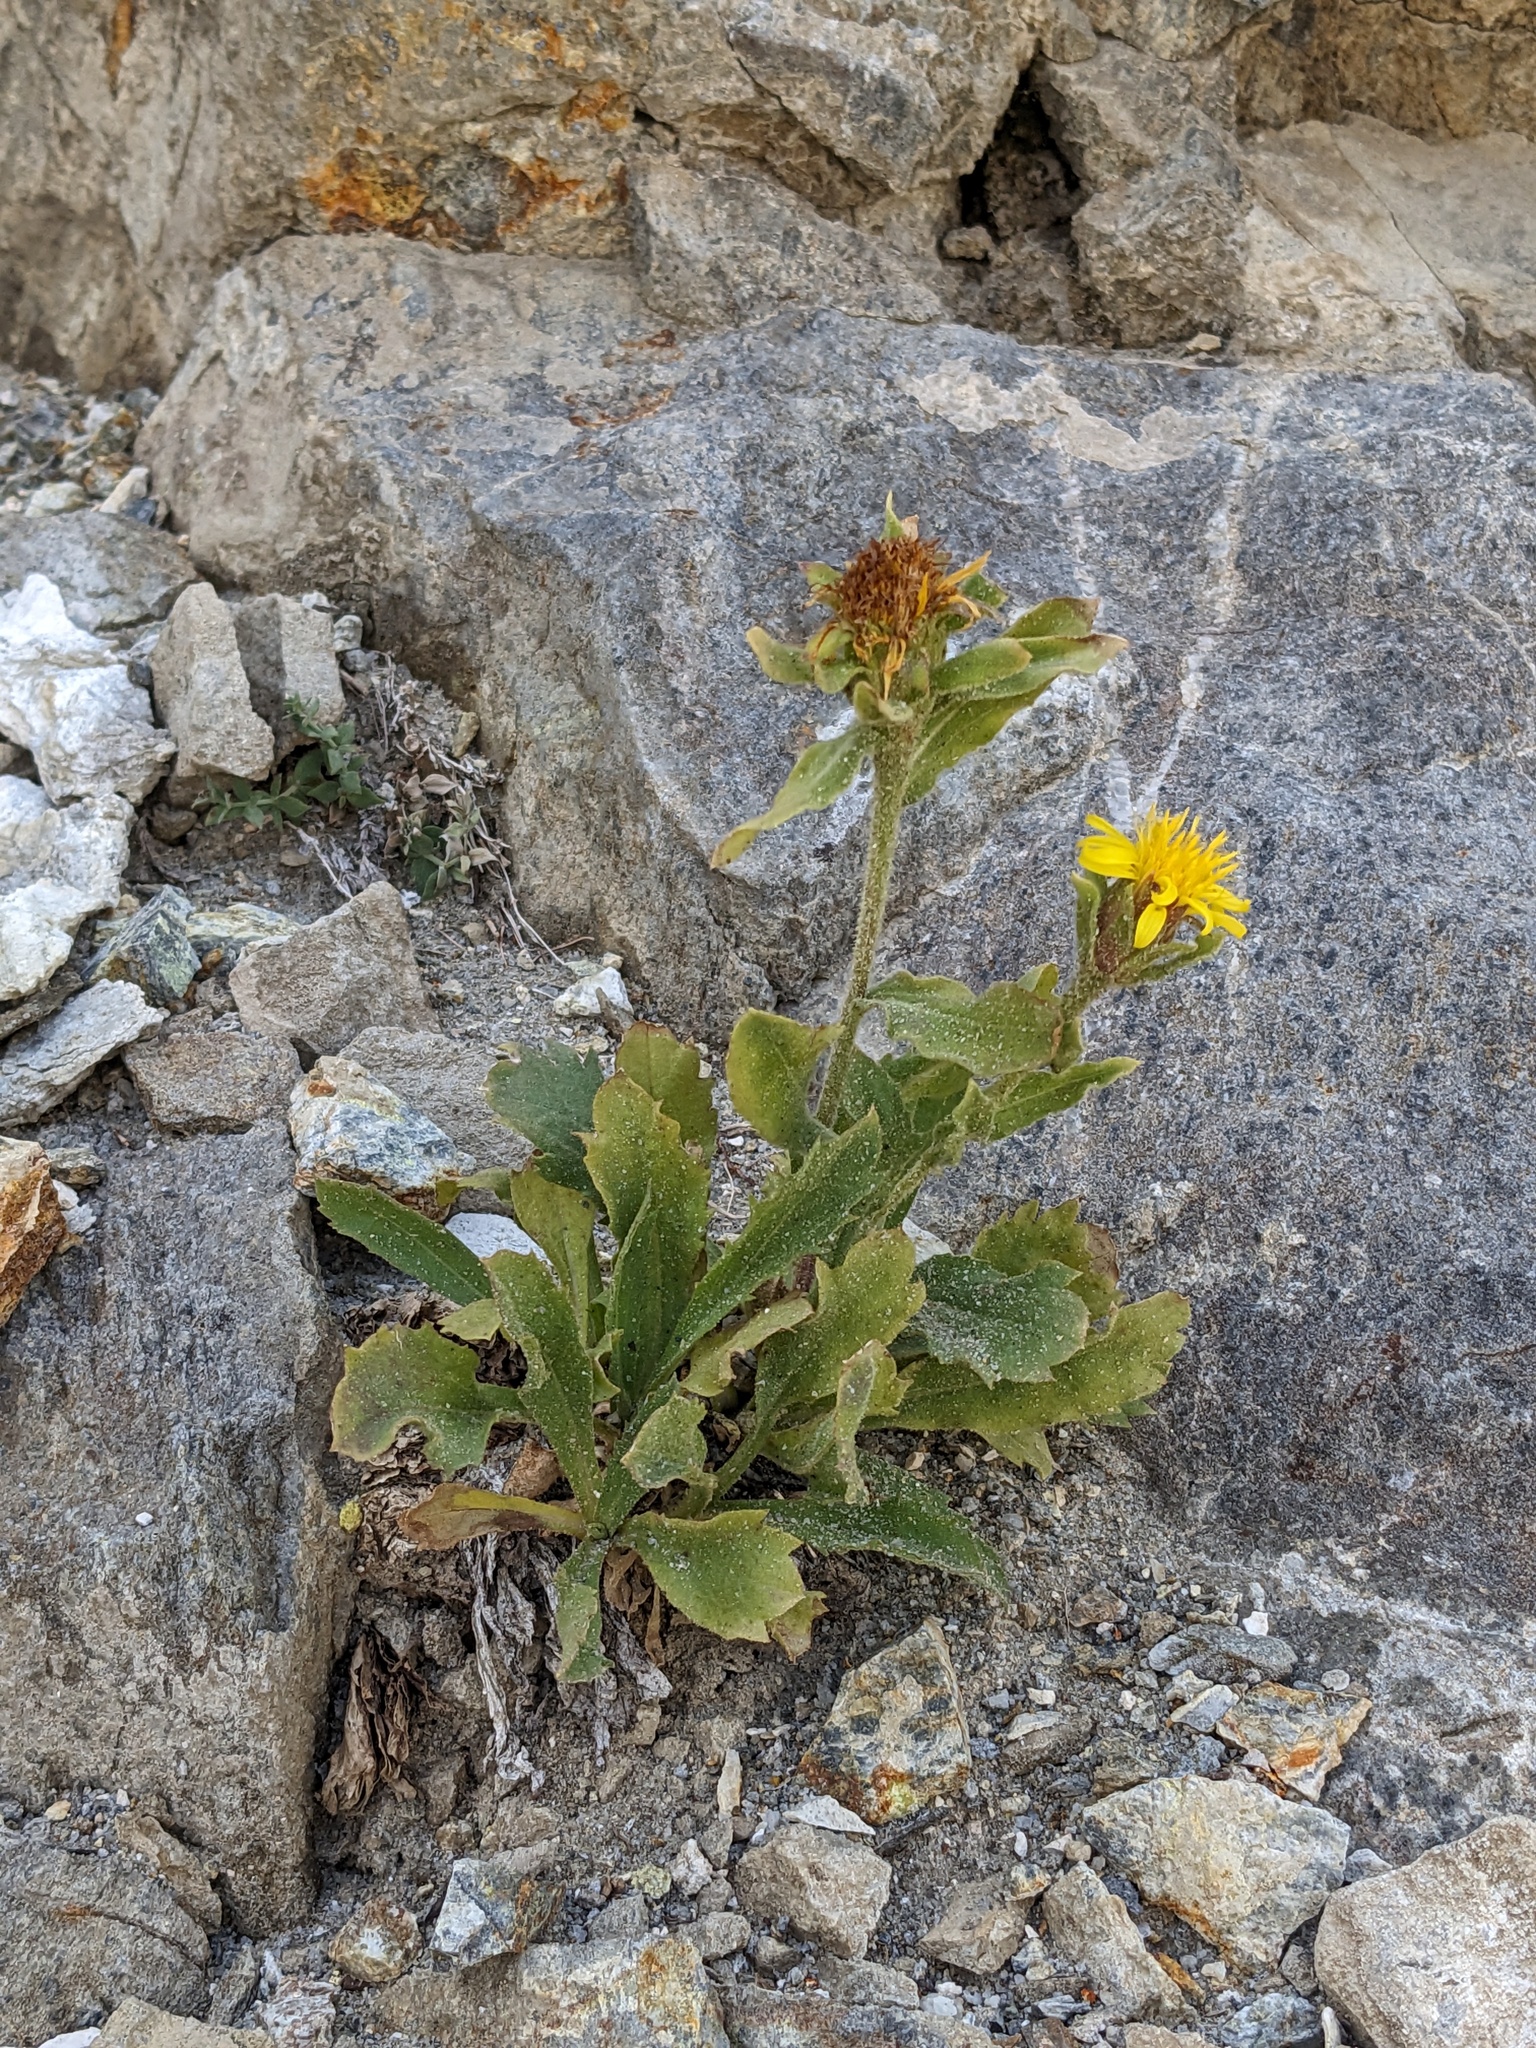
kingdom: Plantae
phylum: Tracheophyta
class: Magnoliopsida
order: Asterales
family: Asteraceae
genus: Toiyabea
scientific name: Toiyabea peirsonii
